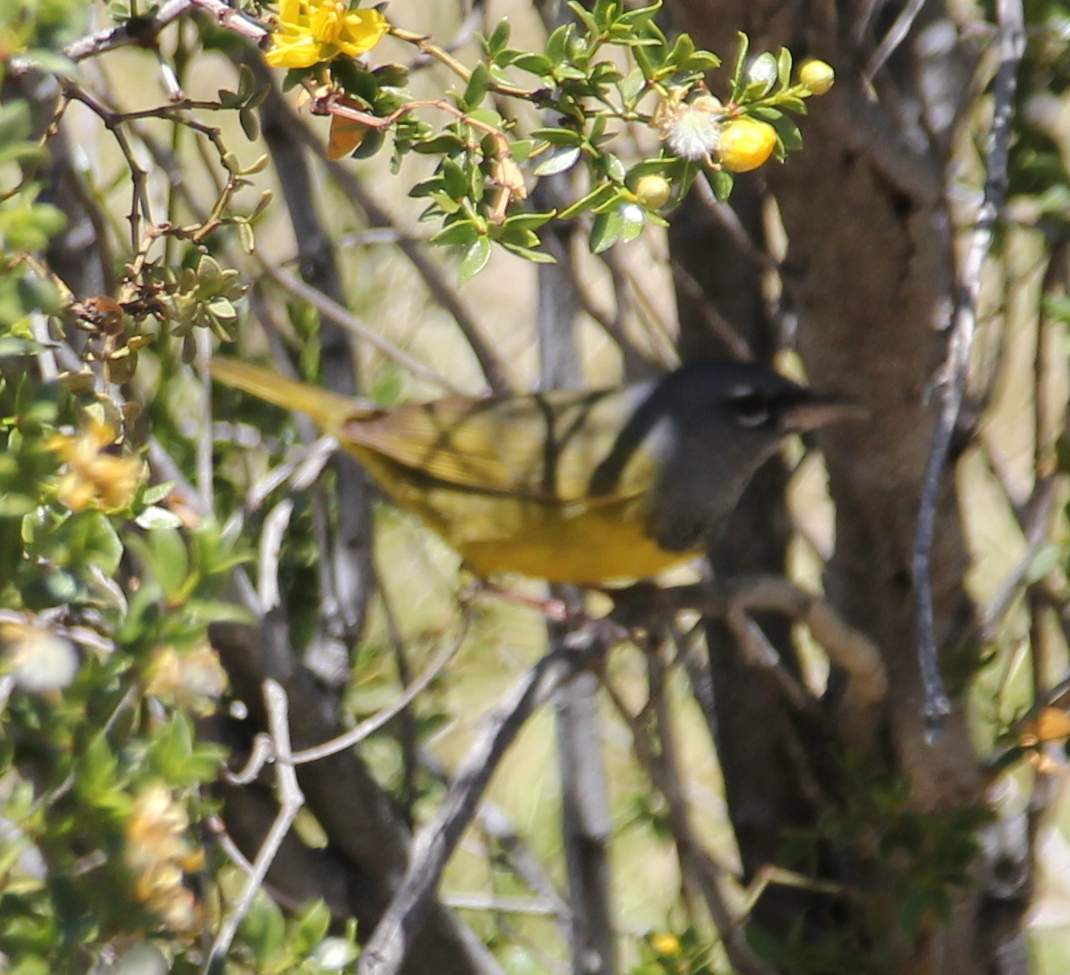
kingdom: Animalia
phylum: Chordata
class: Aves
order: Passeriformes
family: Parulidae
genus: Geothlypis
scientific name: Geothlypis tolmiei
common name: Macgillivray's warbler
